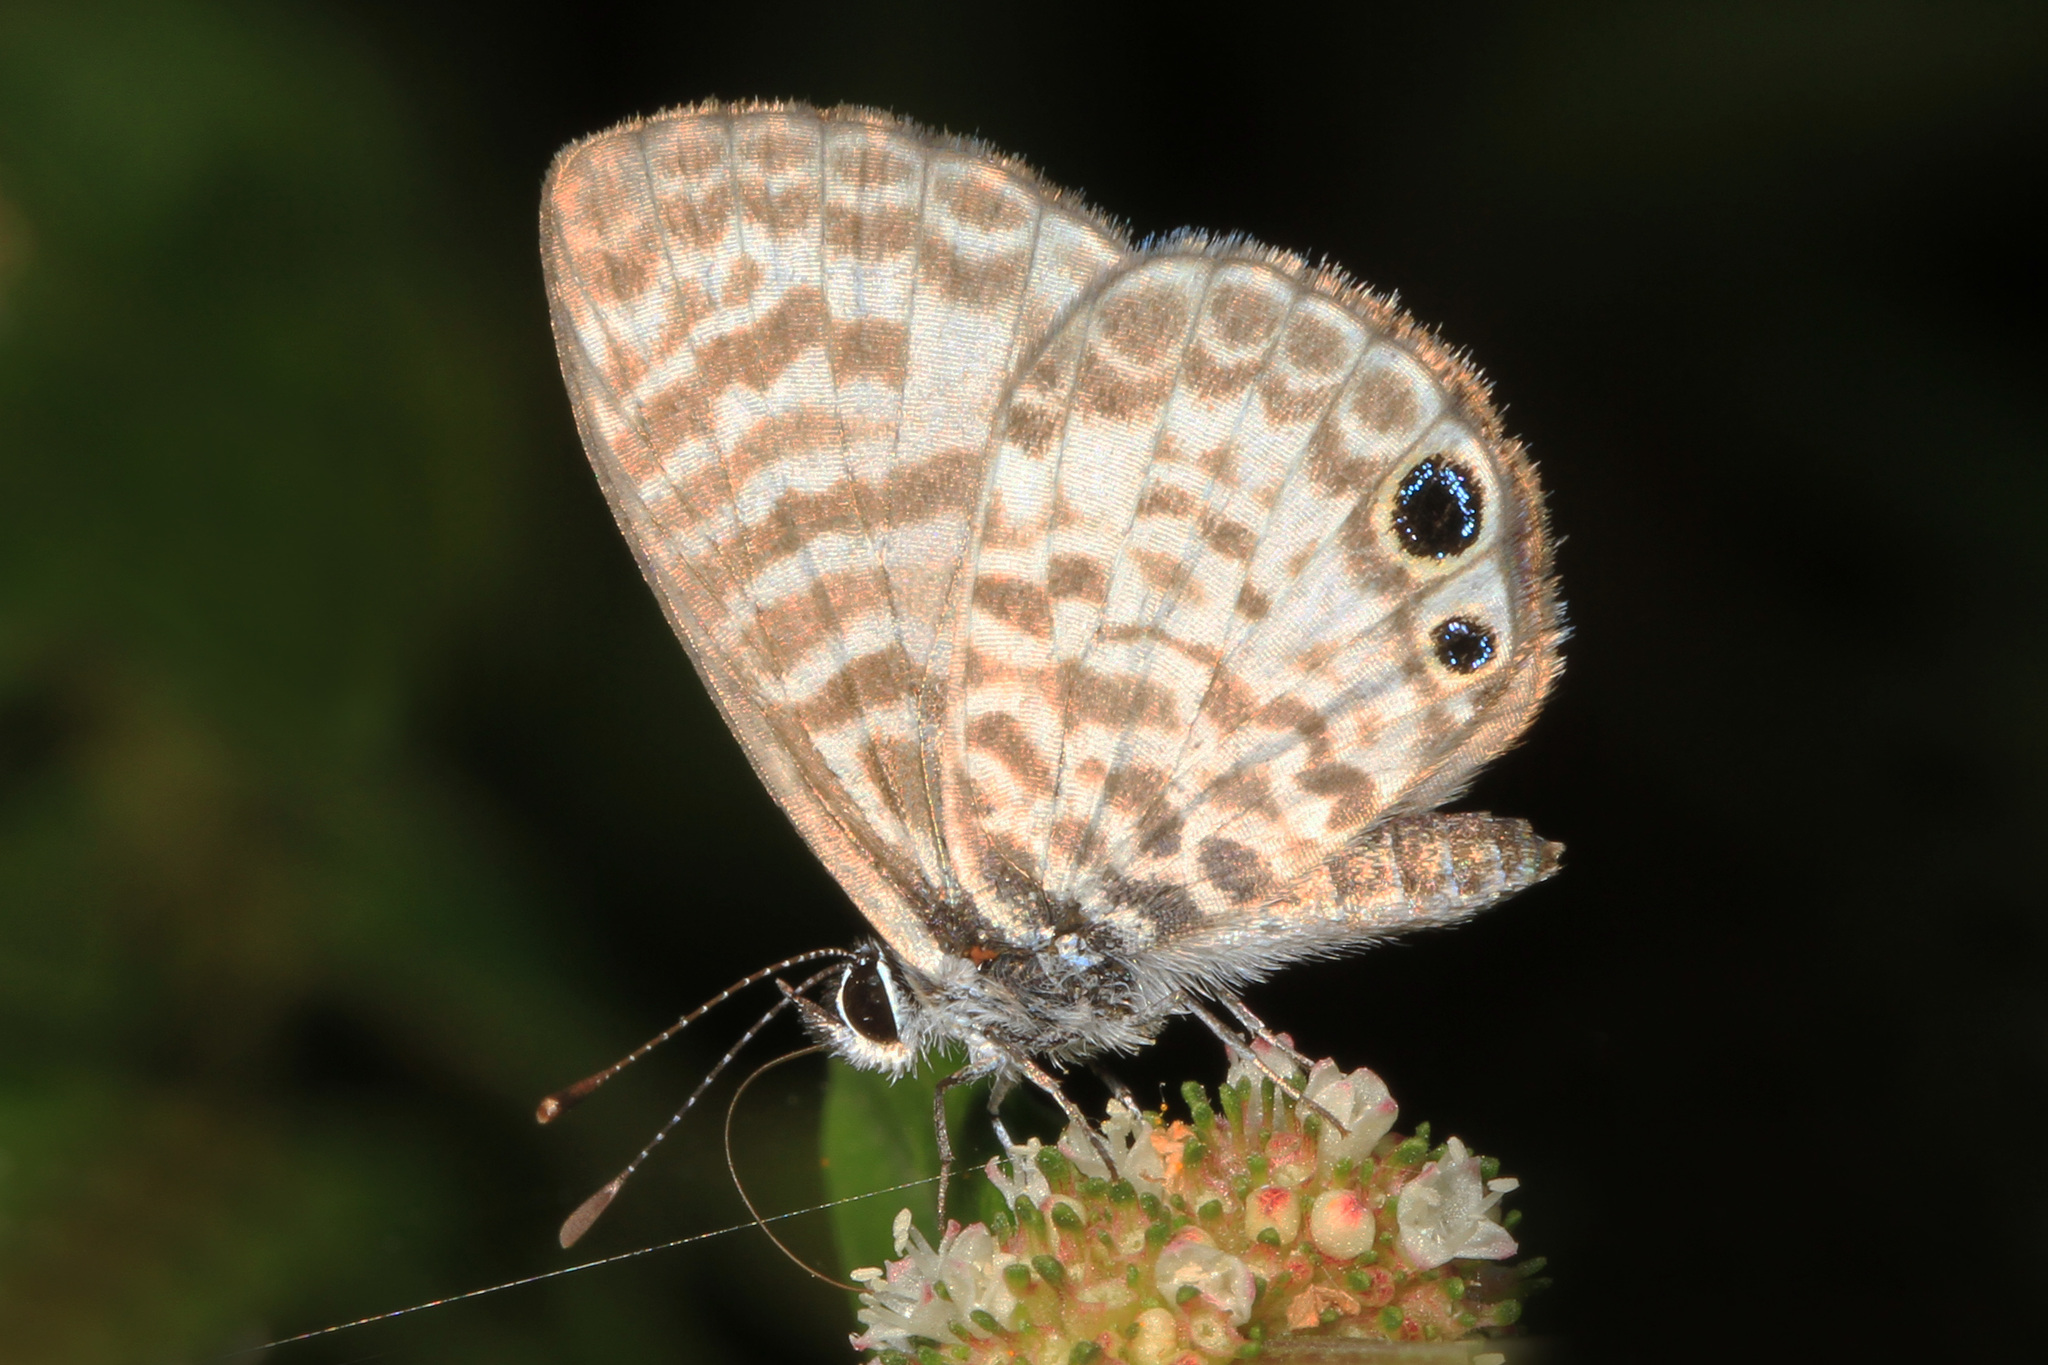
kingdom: Animalia
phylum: Arthropoda
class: Insecta
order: Lepidoptera
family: Lycaenidae
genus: Leptotes
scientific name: Leptotes cassius
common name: Cassius blue
